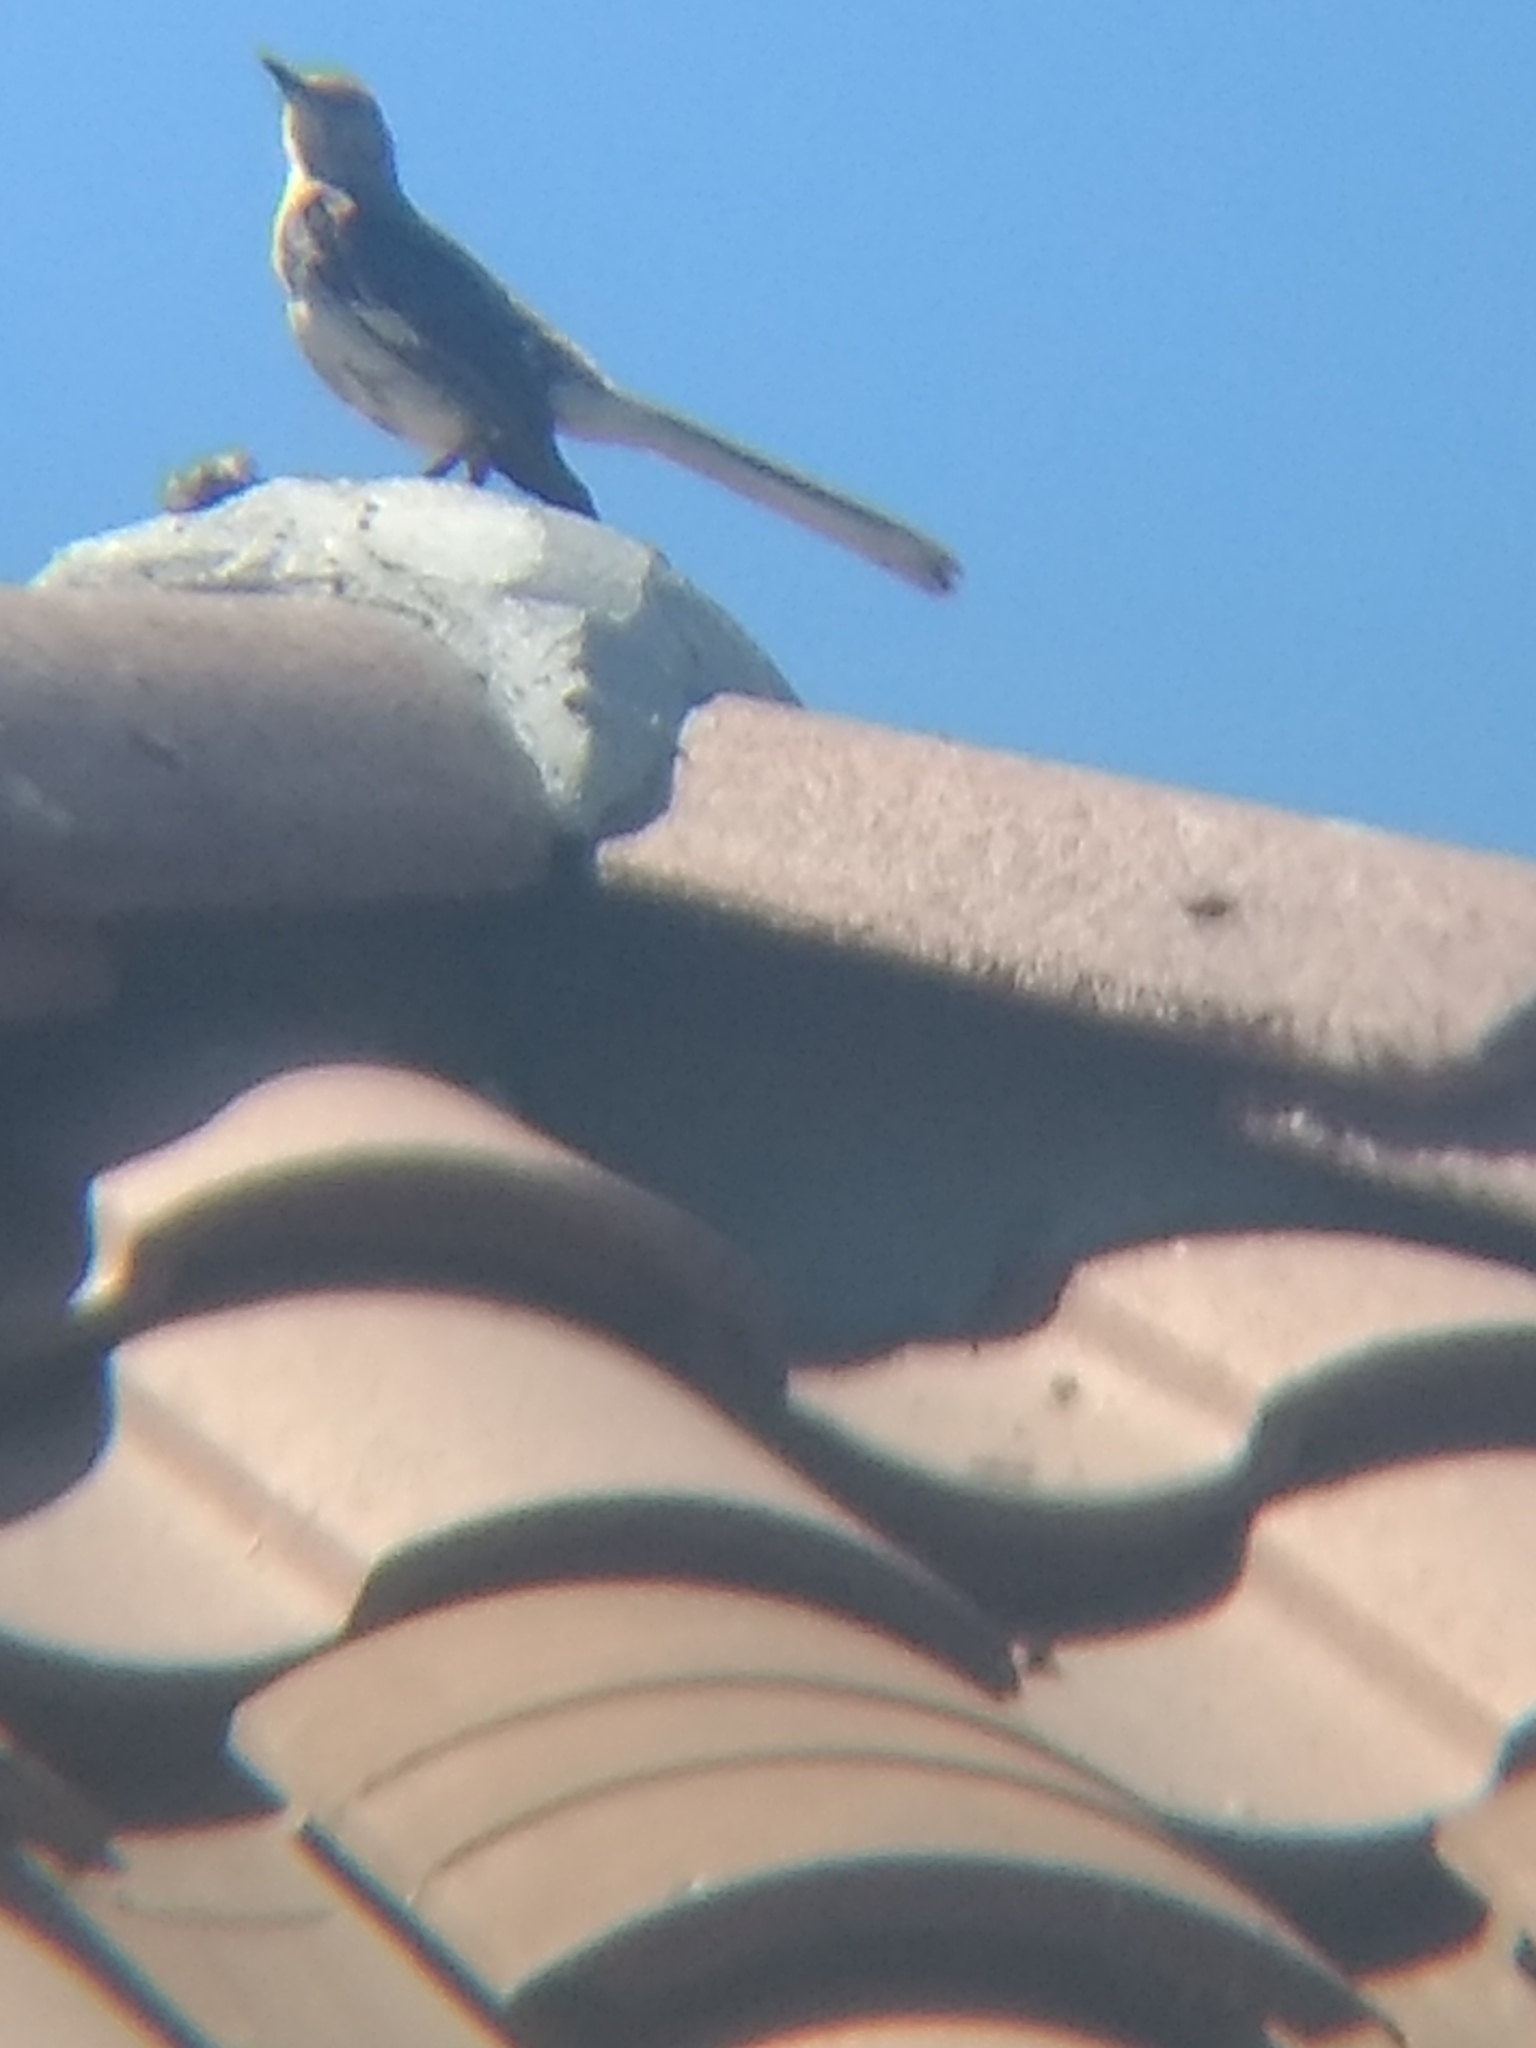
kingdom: Animalia
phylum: Chordata
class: Aves
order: Passeriformes
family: Mimidae
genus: Mimus
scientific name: Mimus polyglottos
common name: Northern mockingbird
